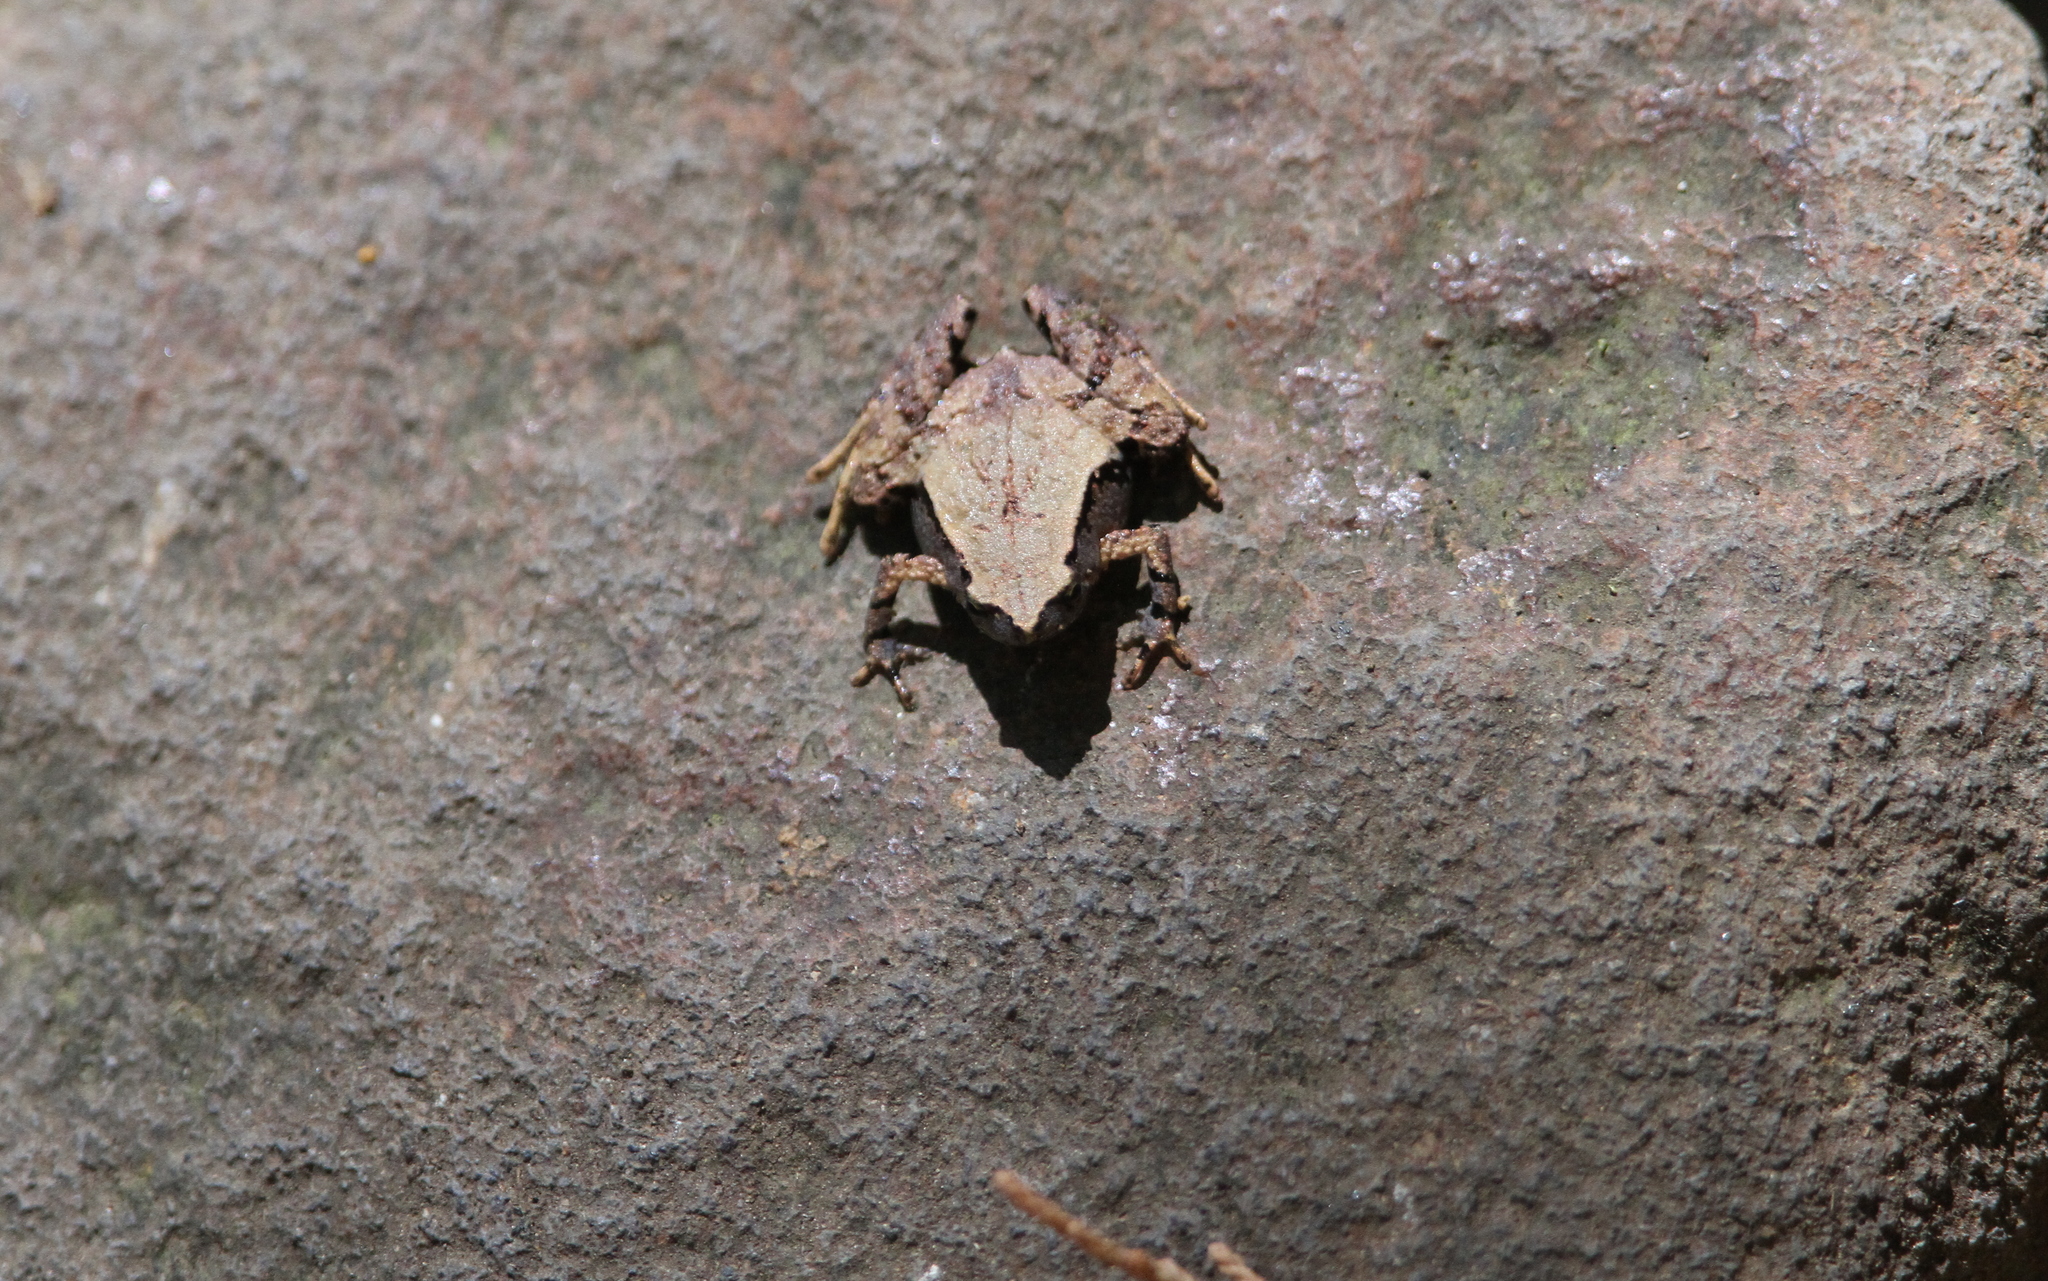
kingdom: Animalia
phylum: Chordata
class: Amphibia
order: Anura
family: Microhylidae
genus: Microhyla
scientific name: Microhyla palmipes
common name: Palmated narrow-mouthed frog,palmated chorus frog
